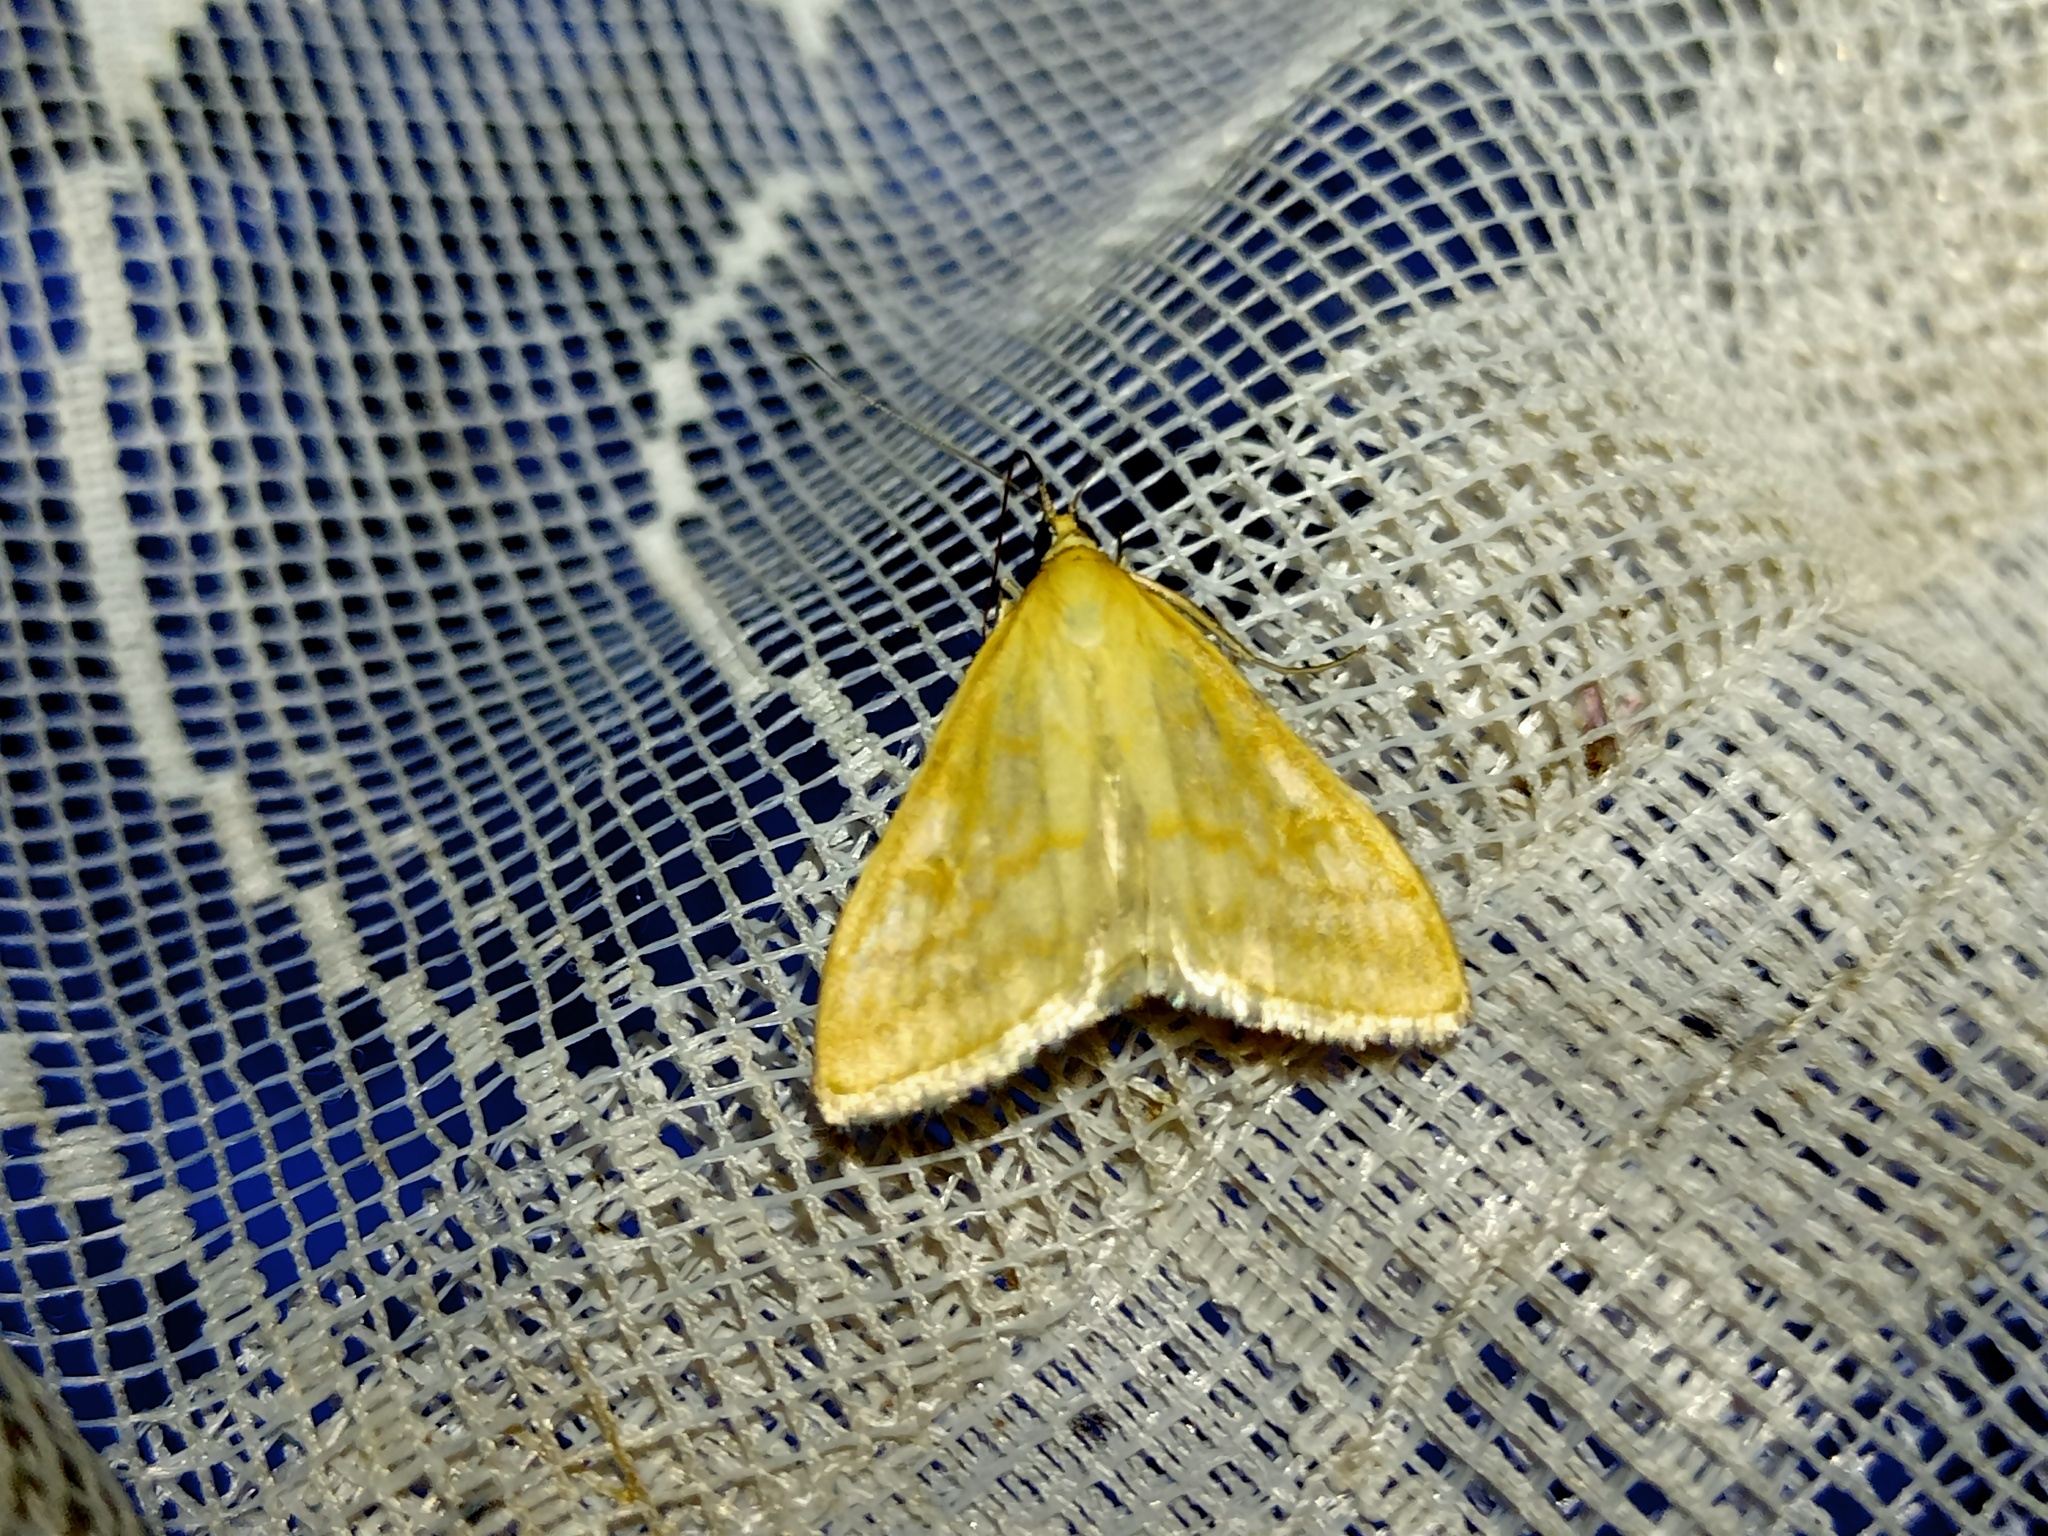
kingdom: Animalia
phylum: Arthropoda
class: Insecta
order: Lepidoptera
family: Crambidae
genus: Sitochroa
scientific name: Sitochroa verticalis
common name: Lesser pearl
